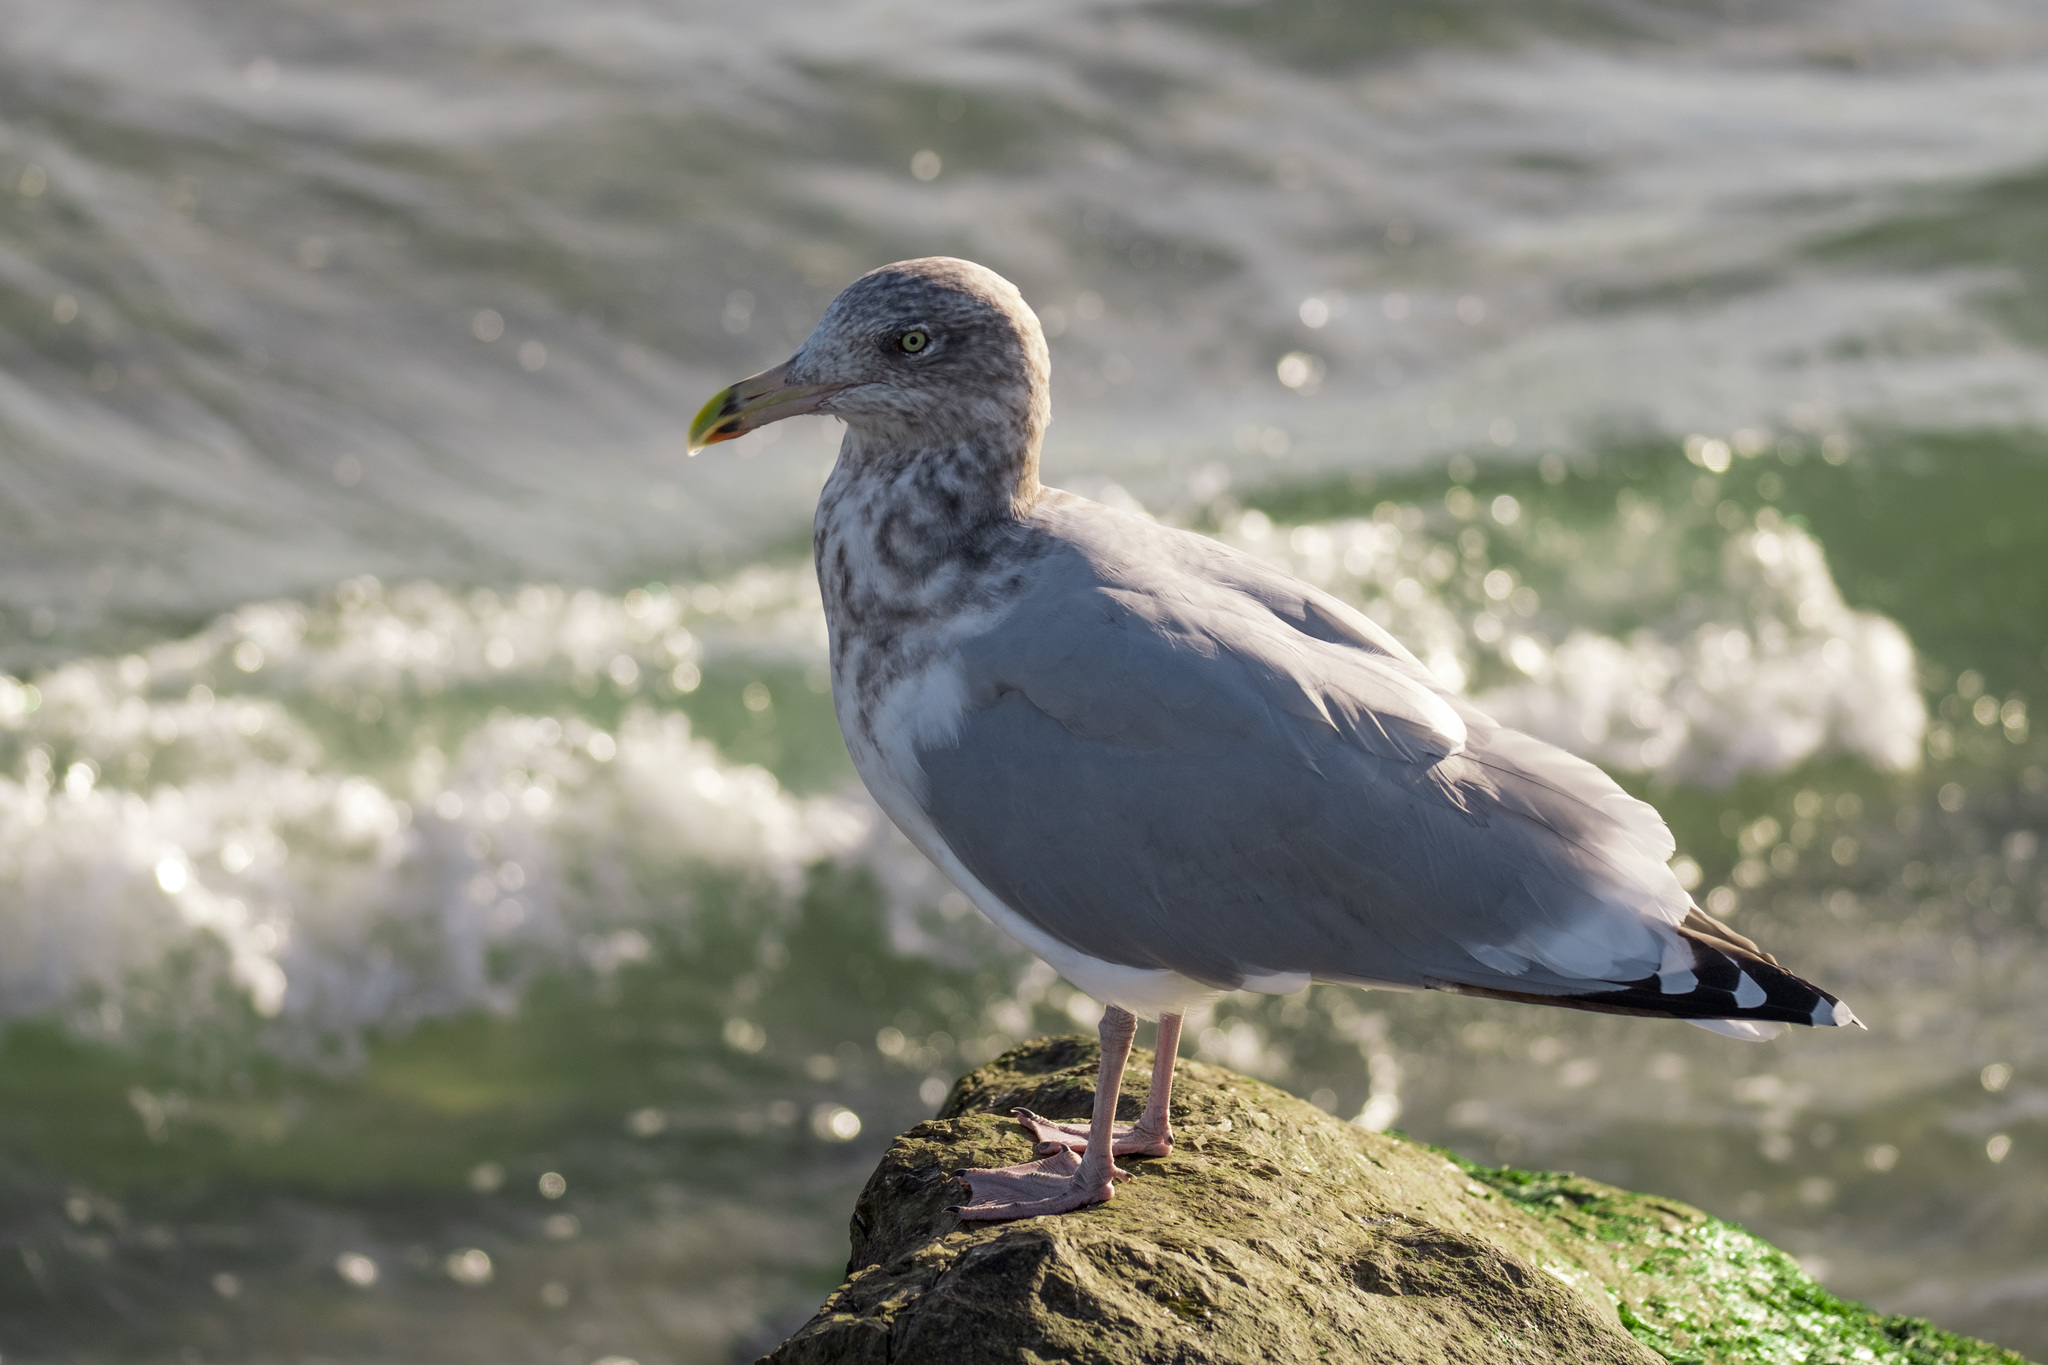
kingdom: Animalia
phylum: Chordata
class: Aves
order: Charadriiformes
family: Laridae
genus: Larus
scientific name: Larus argentatus
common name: Herring gull
